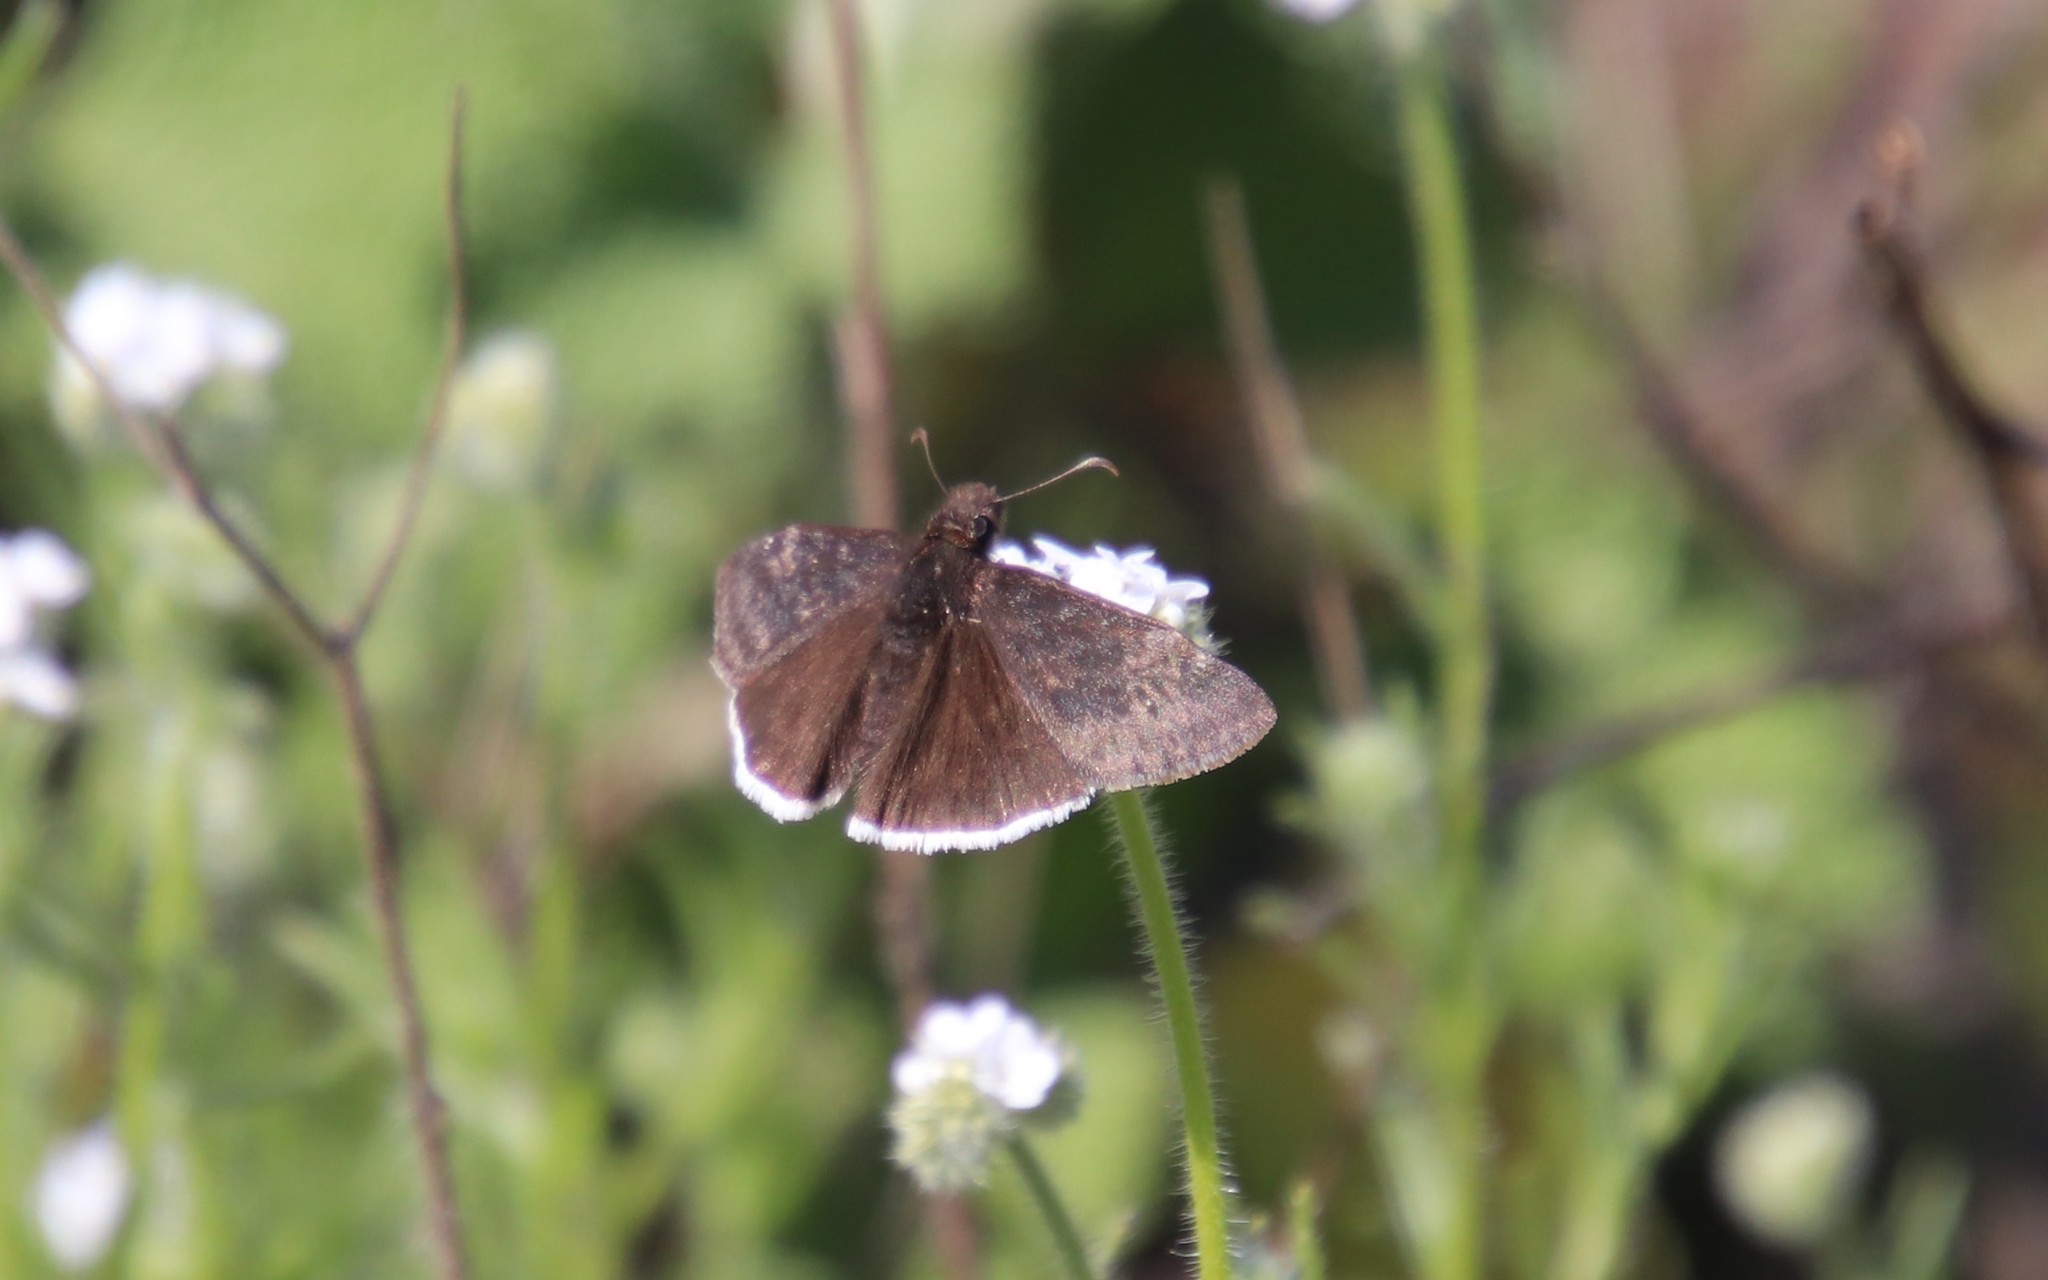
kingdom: Animalia
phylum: Arthropoda
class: Insecta
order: Lepidoptera
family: Hesperiidae
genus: Erynnis
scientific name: Erynnis funeralis
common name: Funereal duskywing
